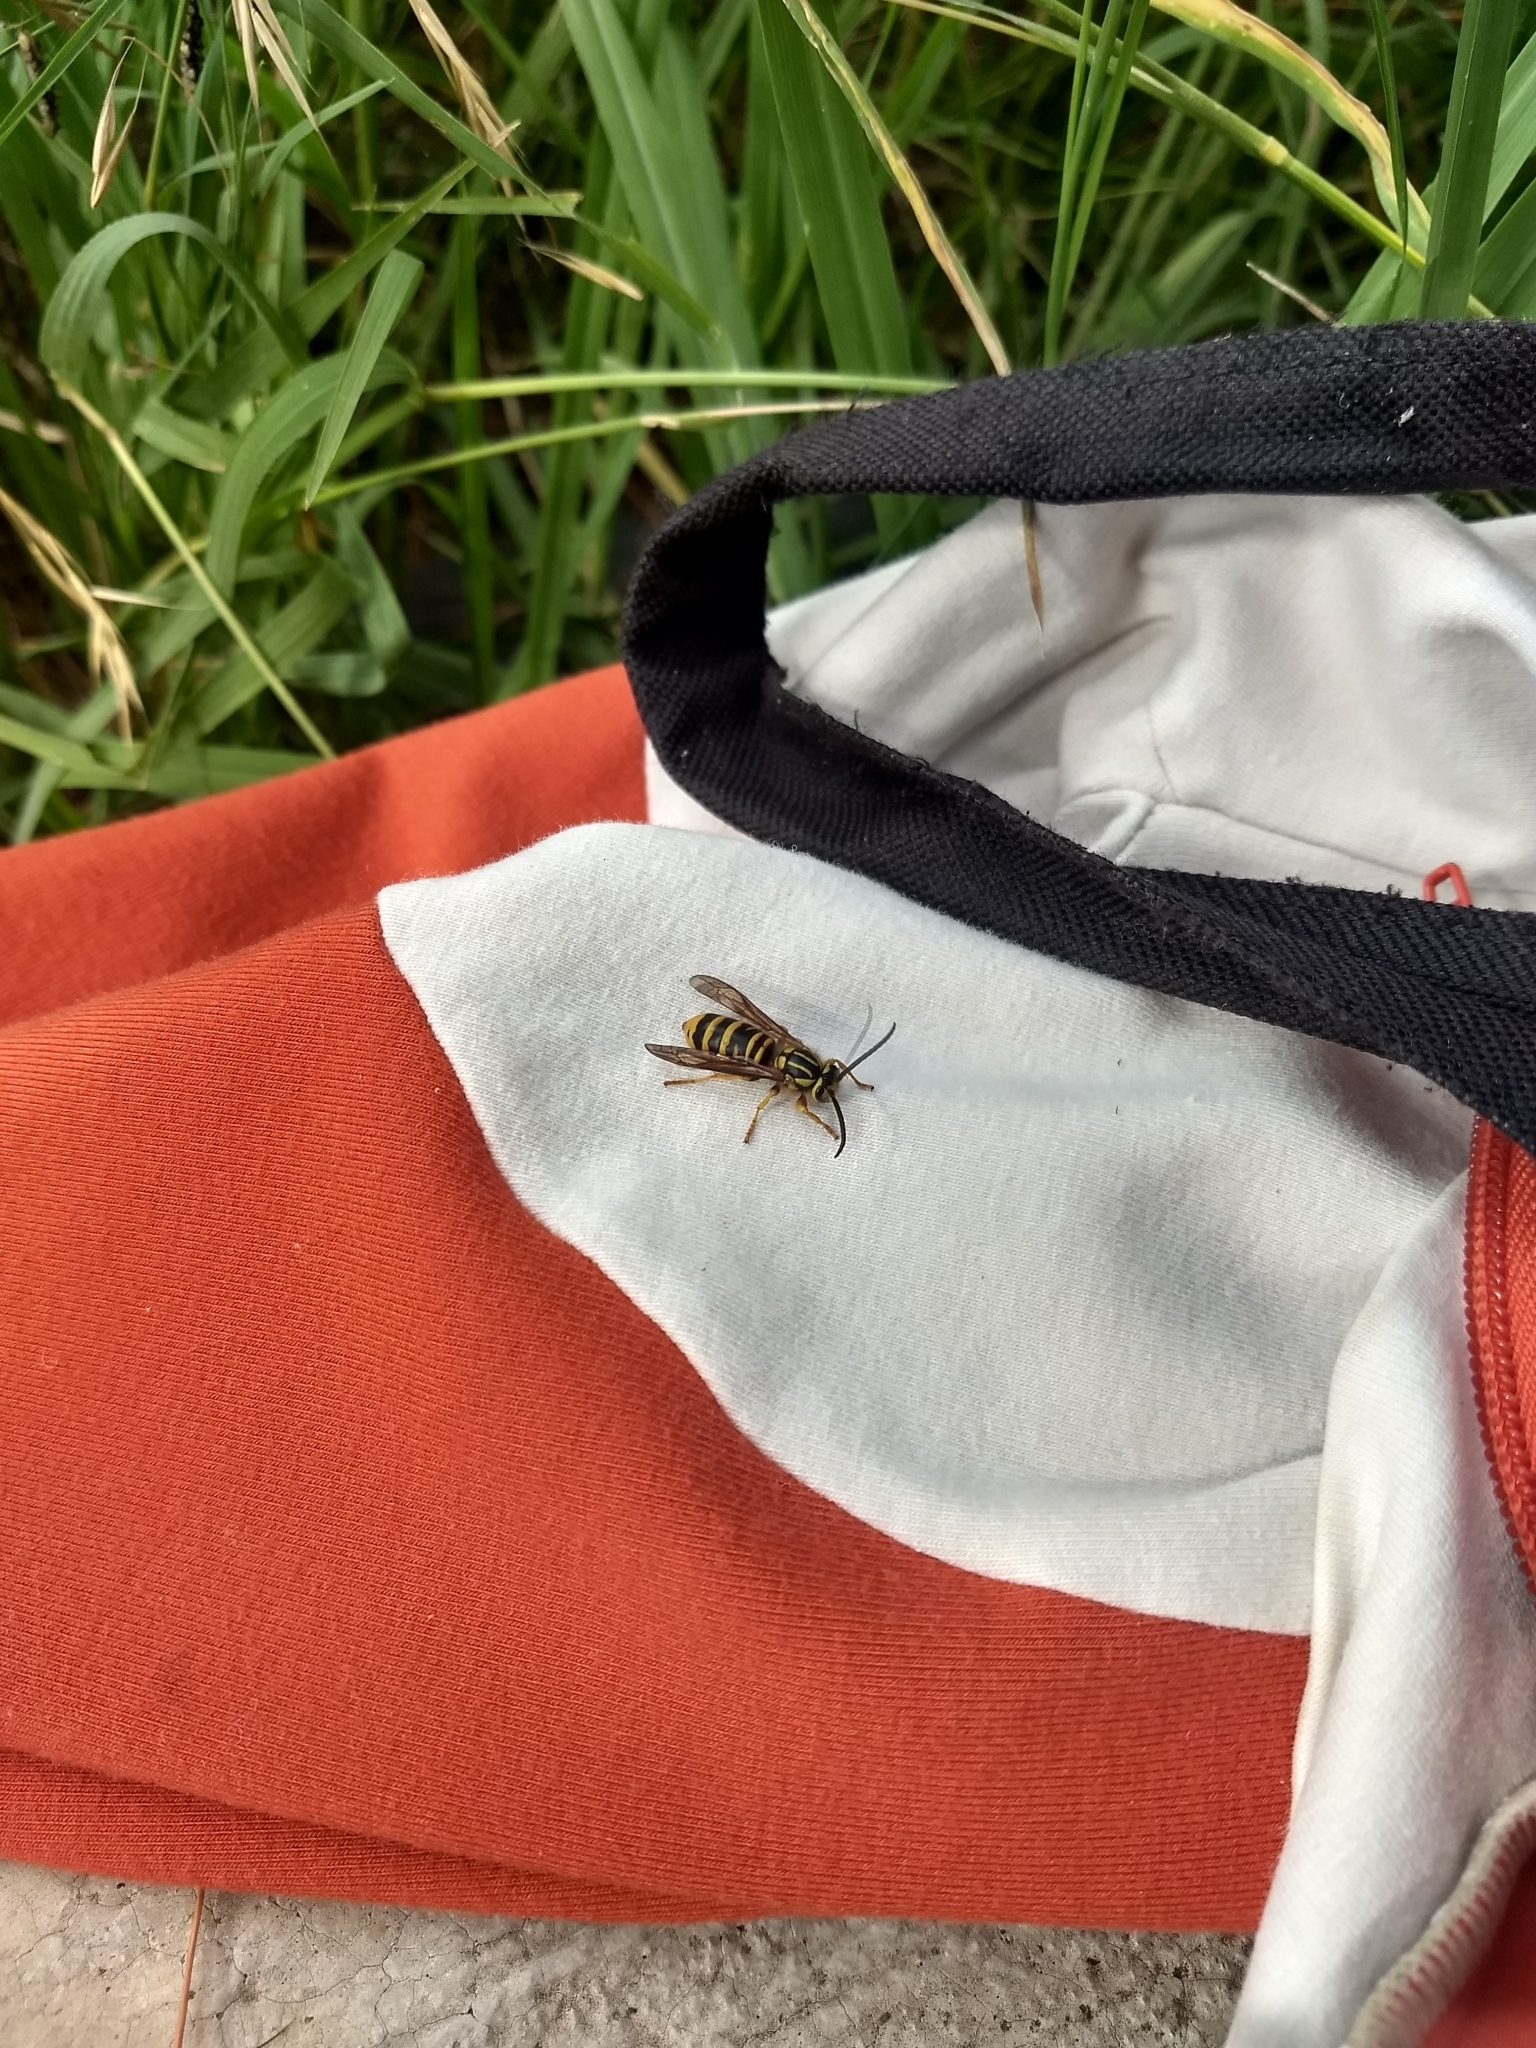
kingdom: Animalia
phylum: Arthropoda
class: Insecta
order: Hymenoptera
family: Vespidae
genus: Vespula
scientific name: Vespula squamosa
